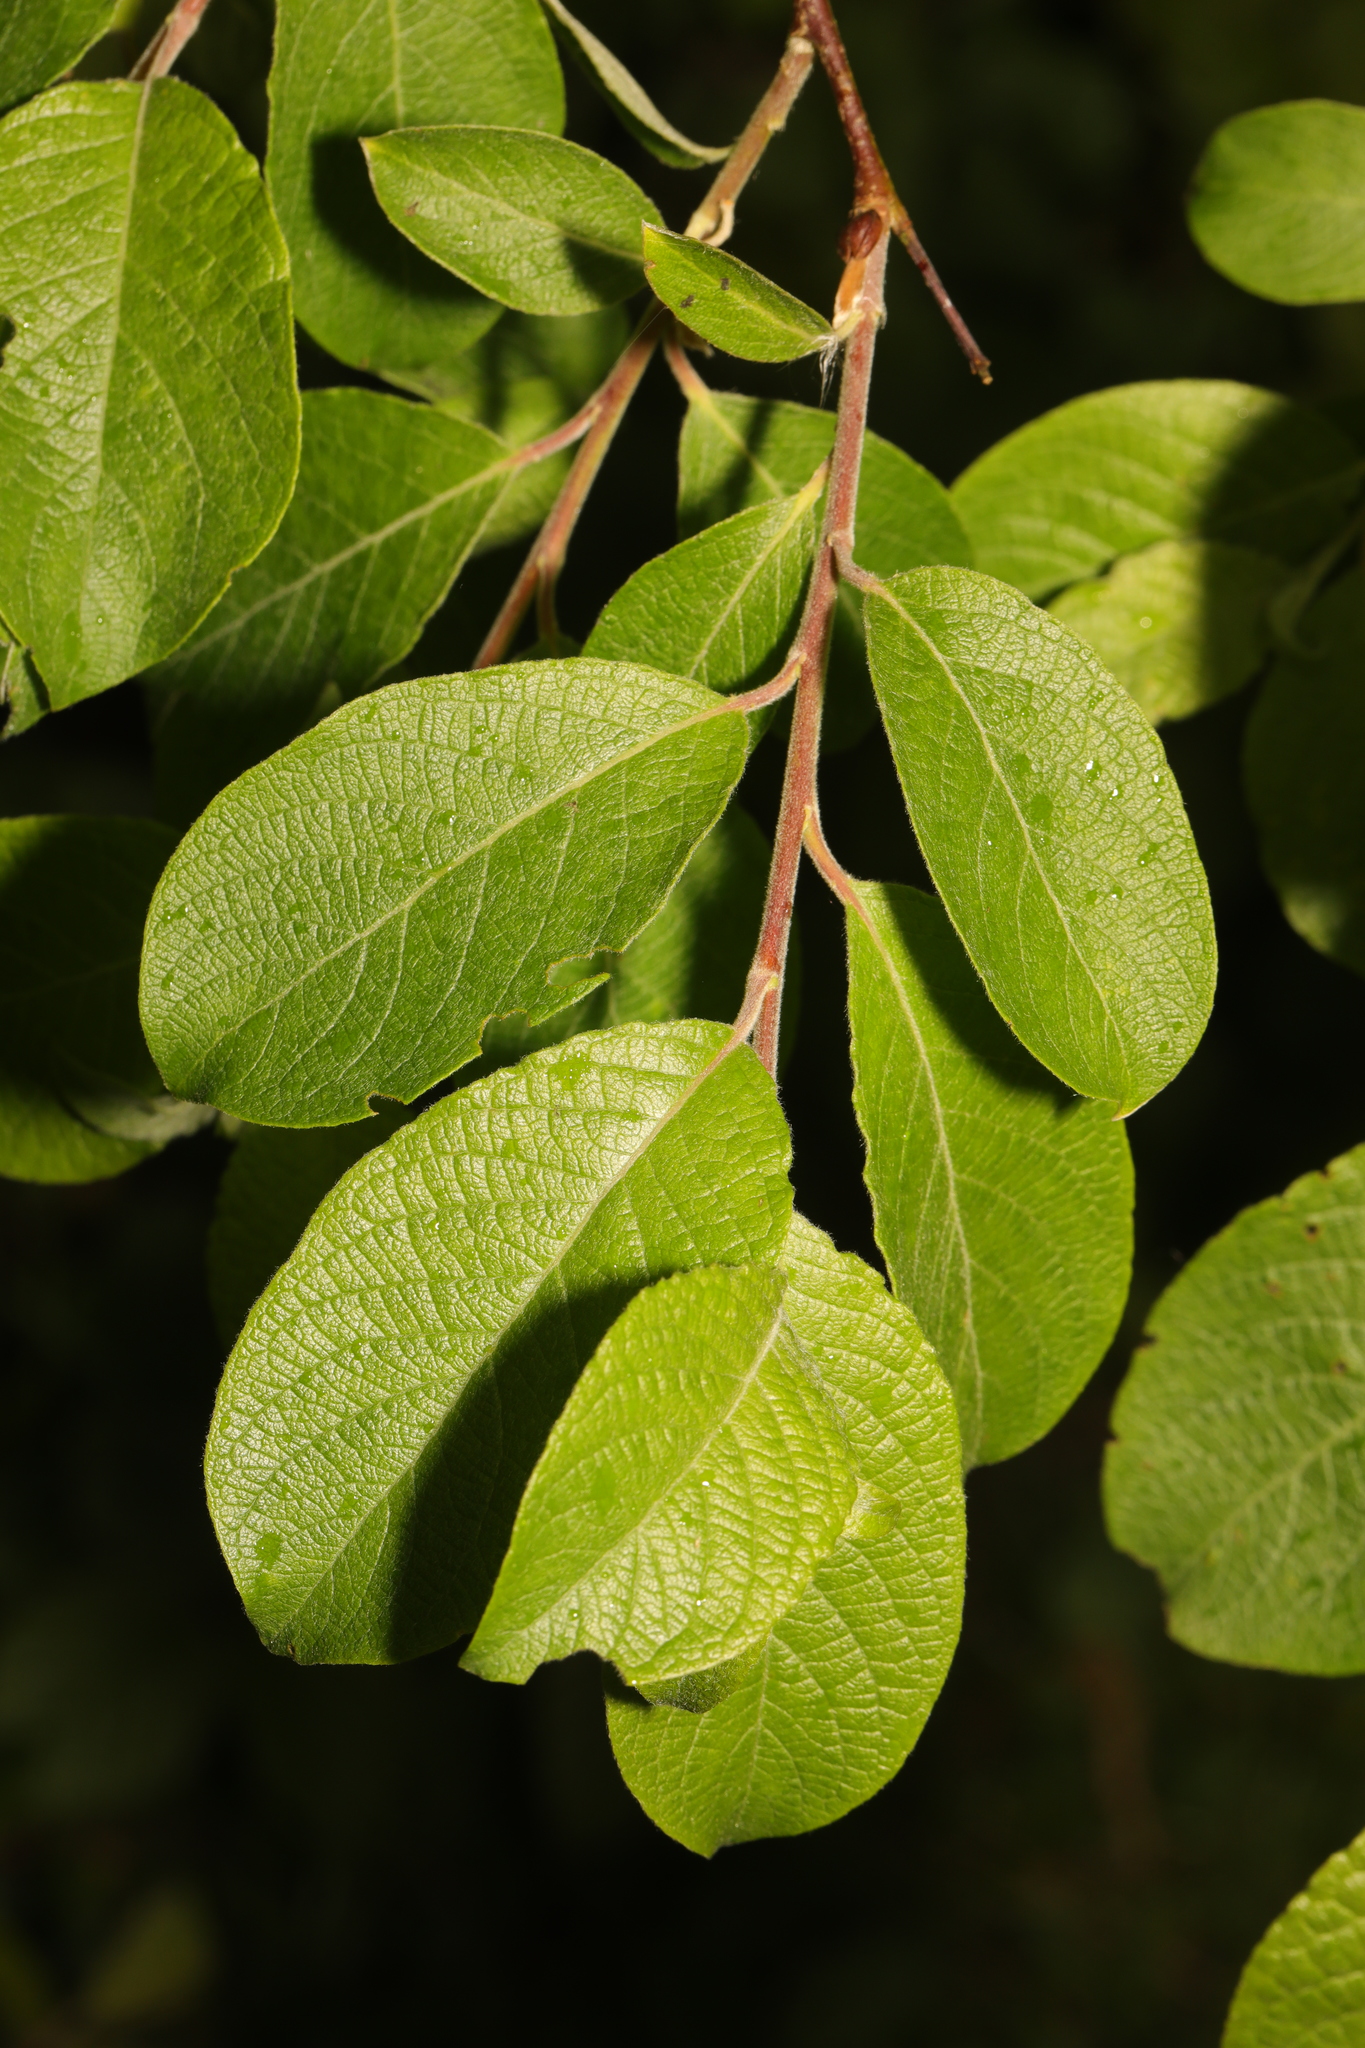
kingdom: Plantae
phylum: Tracheophyta
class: Magnoliopsida
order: Malpighiales
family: Salicaceae
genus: Salix
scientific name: Salix atrocinerea
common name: Rusty willow
